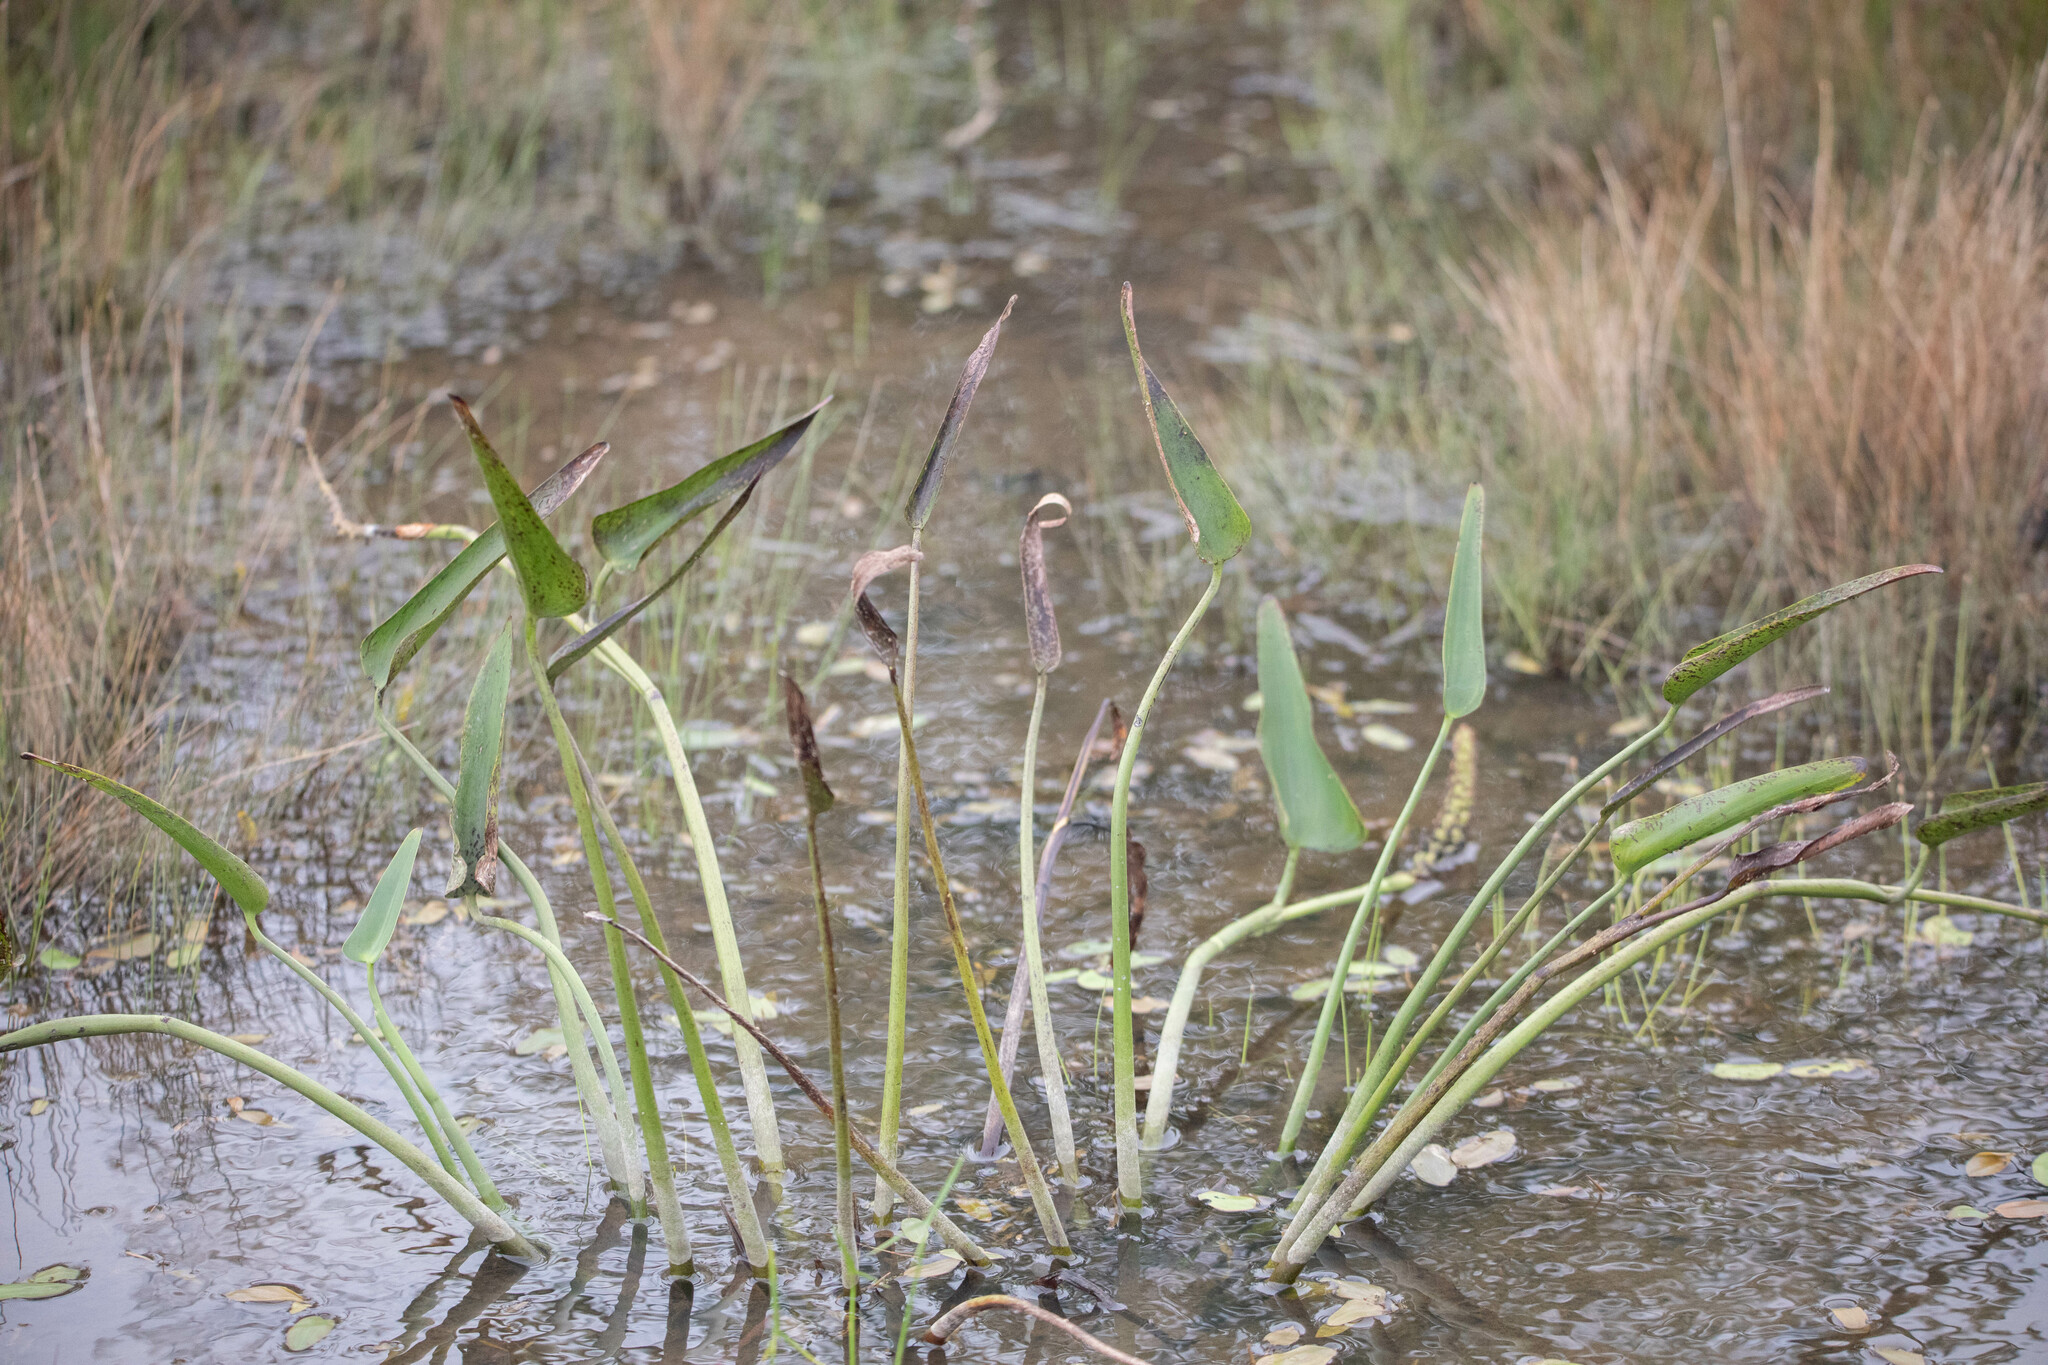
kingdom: Plantae
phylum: Tracheophyta
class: Liliopsida
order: Commelinales
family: Pontederiaceae
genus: Pontederia
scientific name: Pontederia cordata
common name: Pickerelweed
